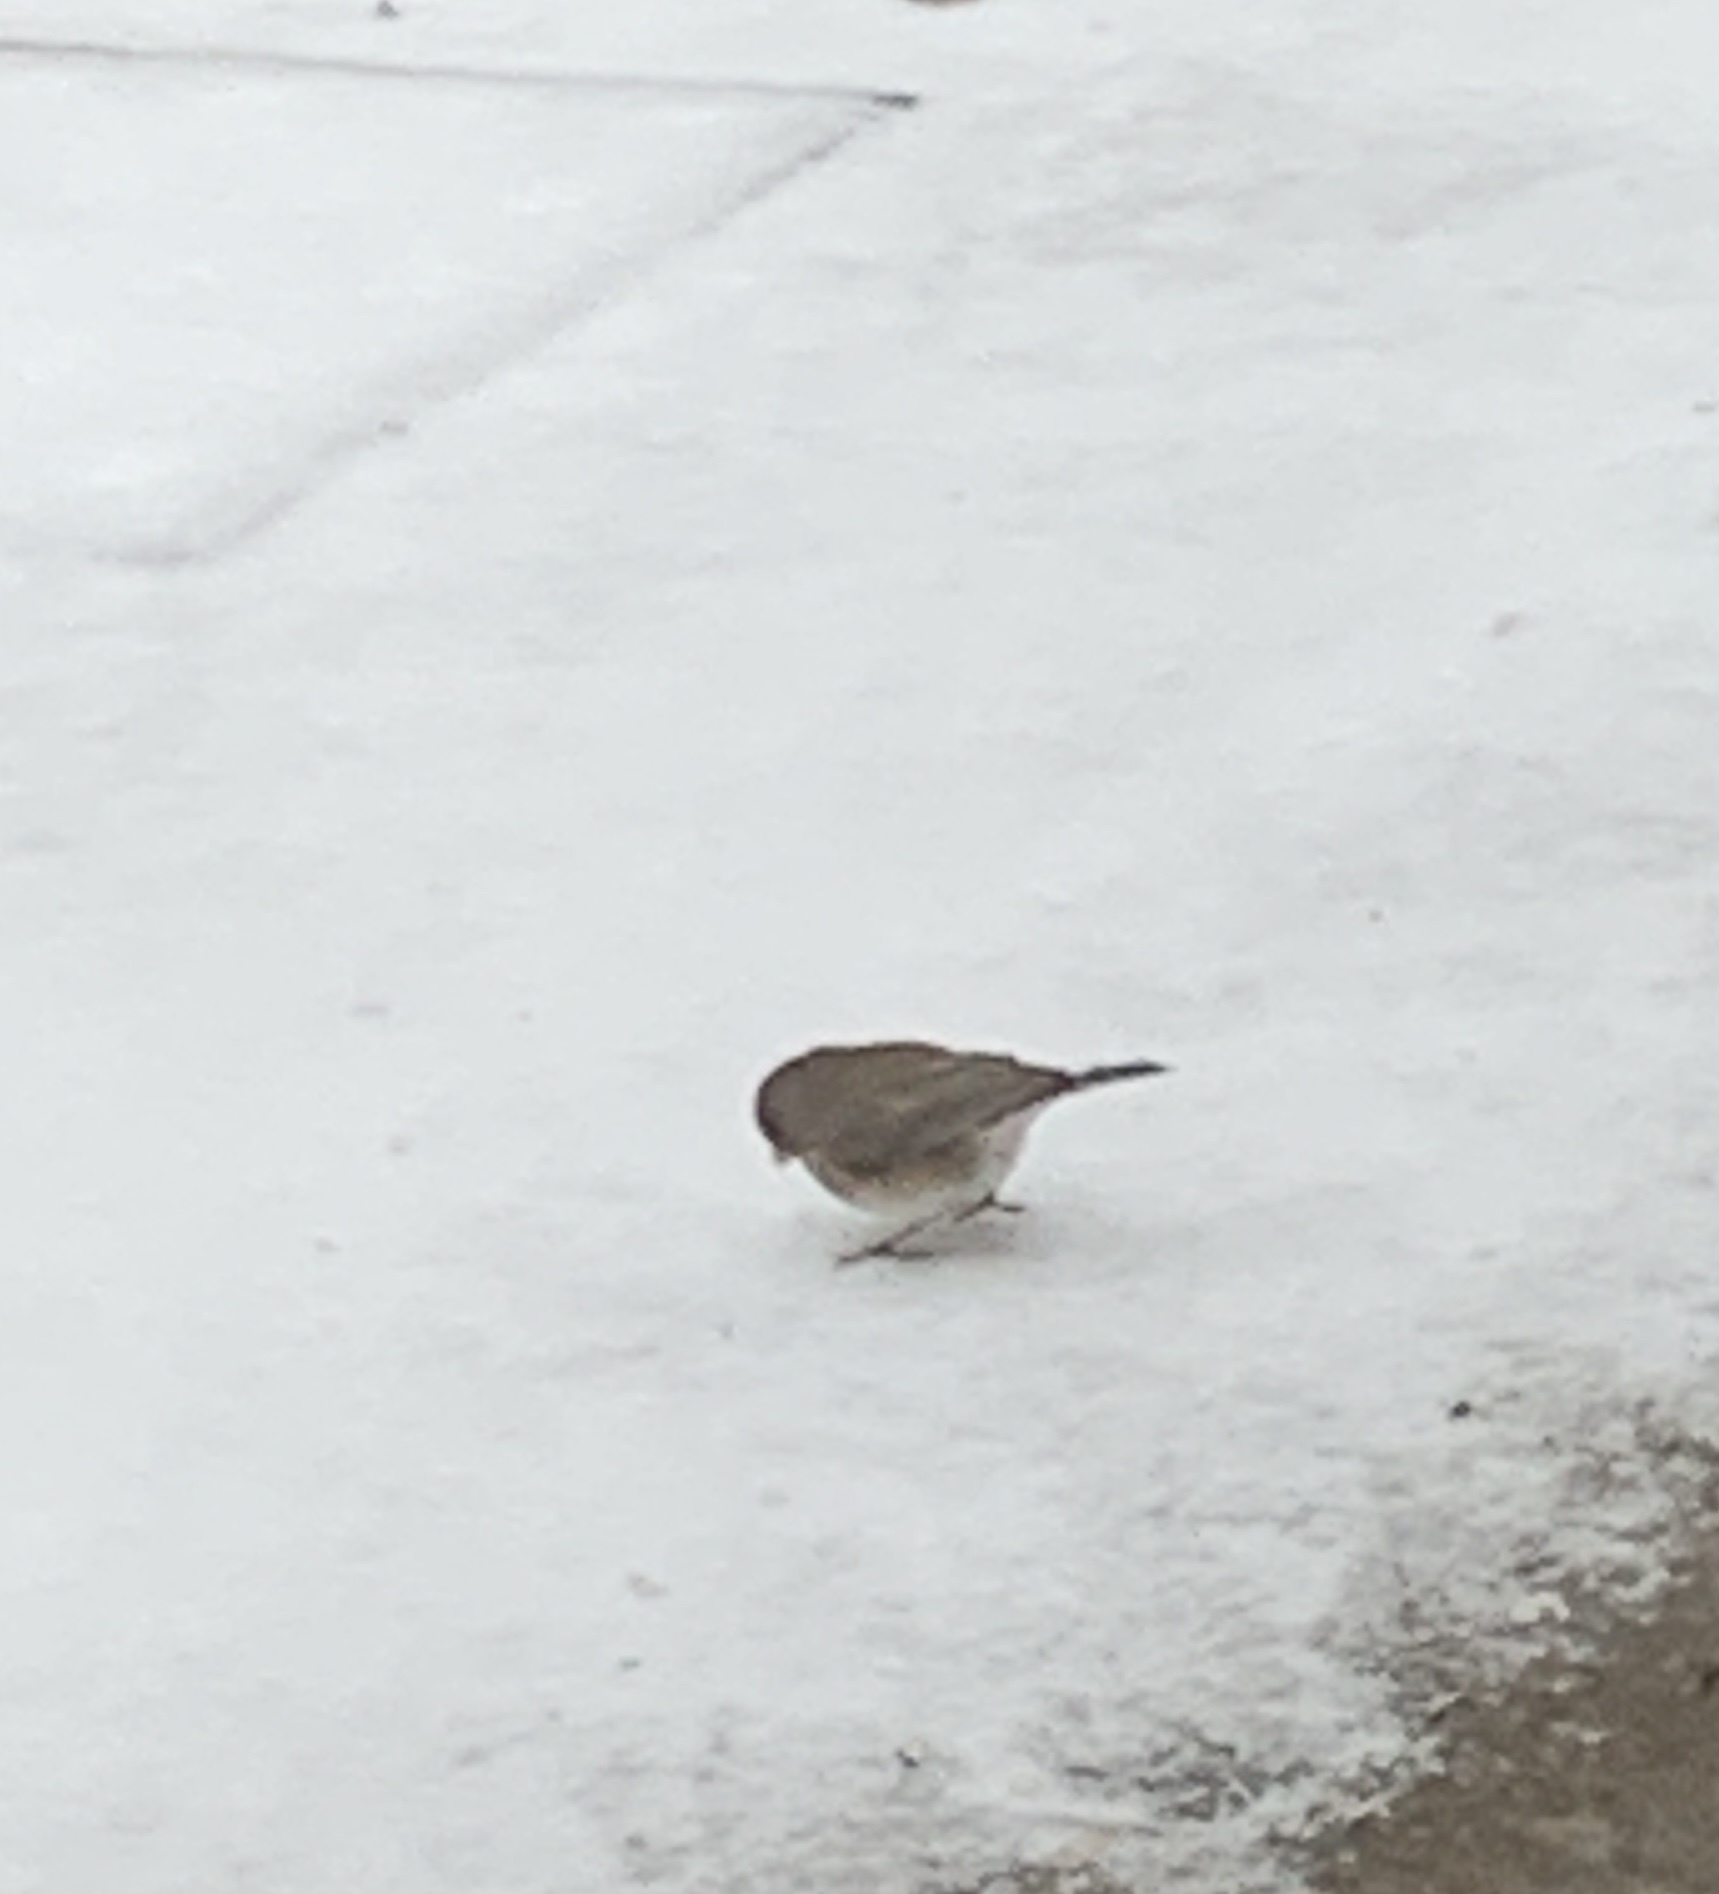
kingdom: Animalia
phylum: Chordata
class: Aves
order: Passeriformes
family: Passerellidae
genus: Junco
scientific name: Junco hyemalis
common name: Dark-eyed junco
